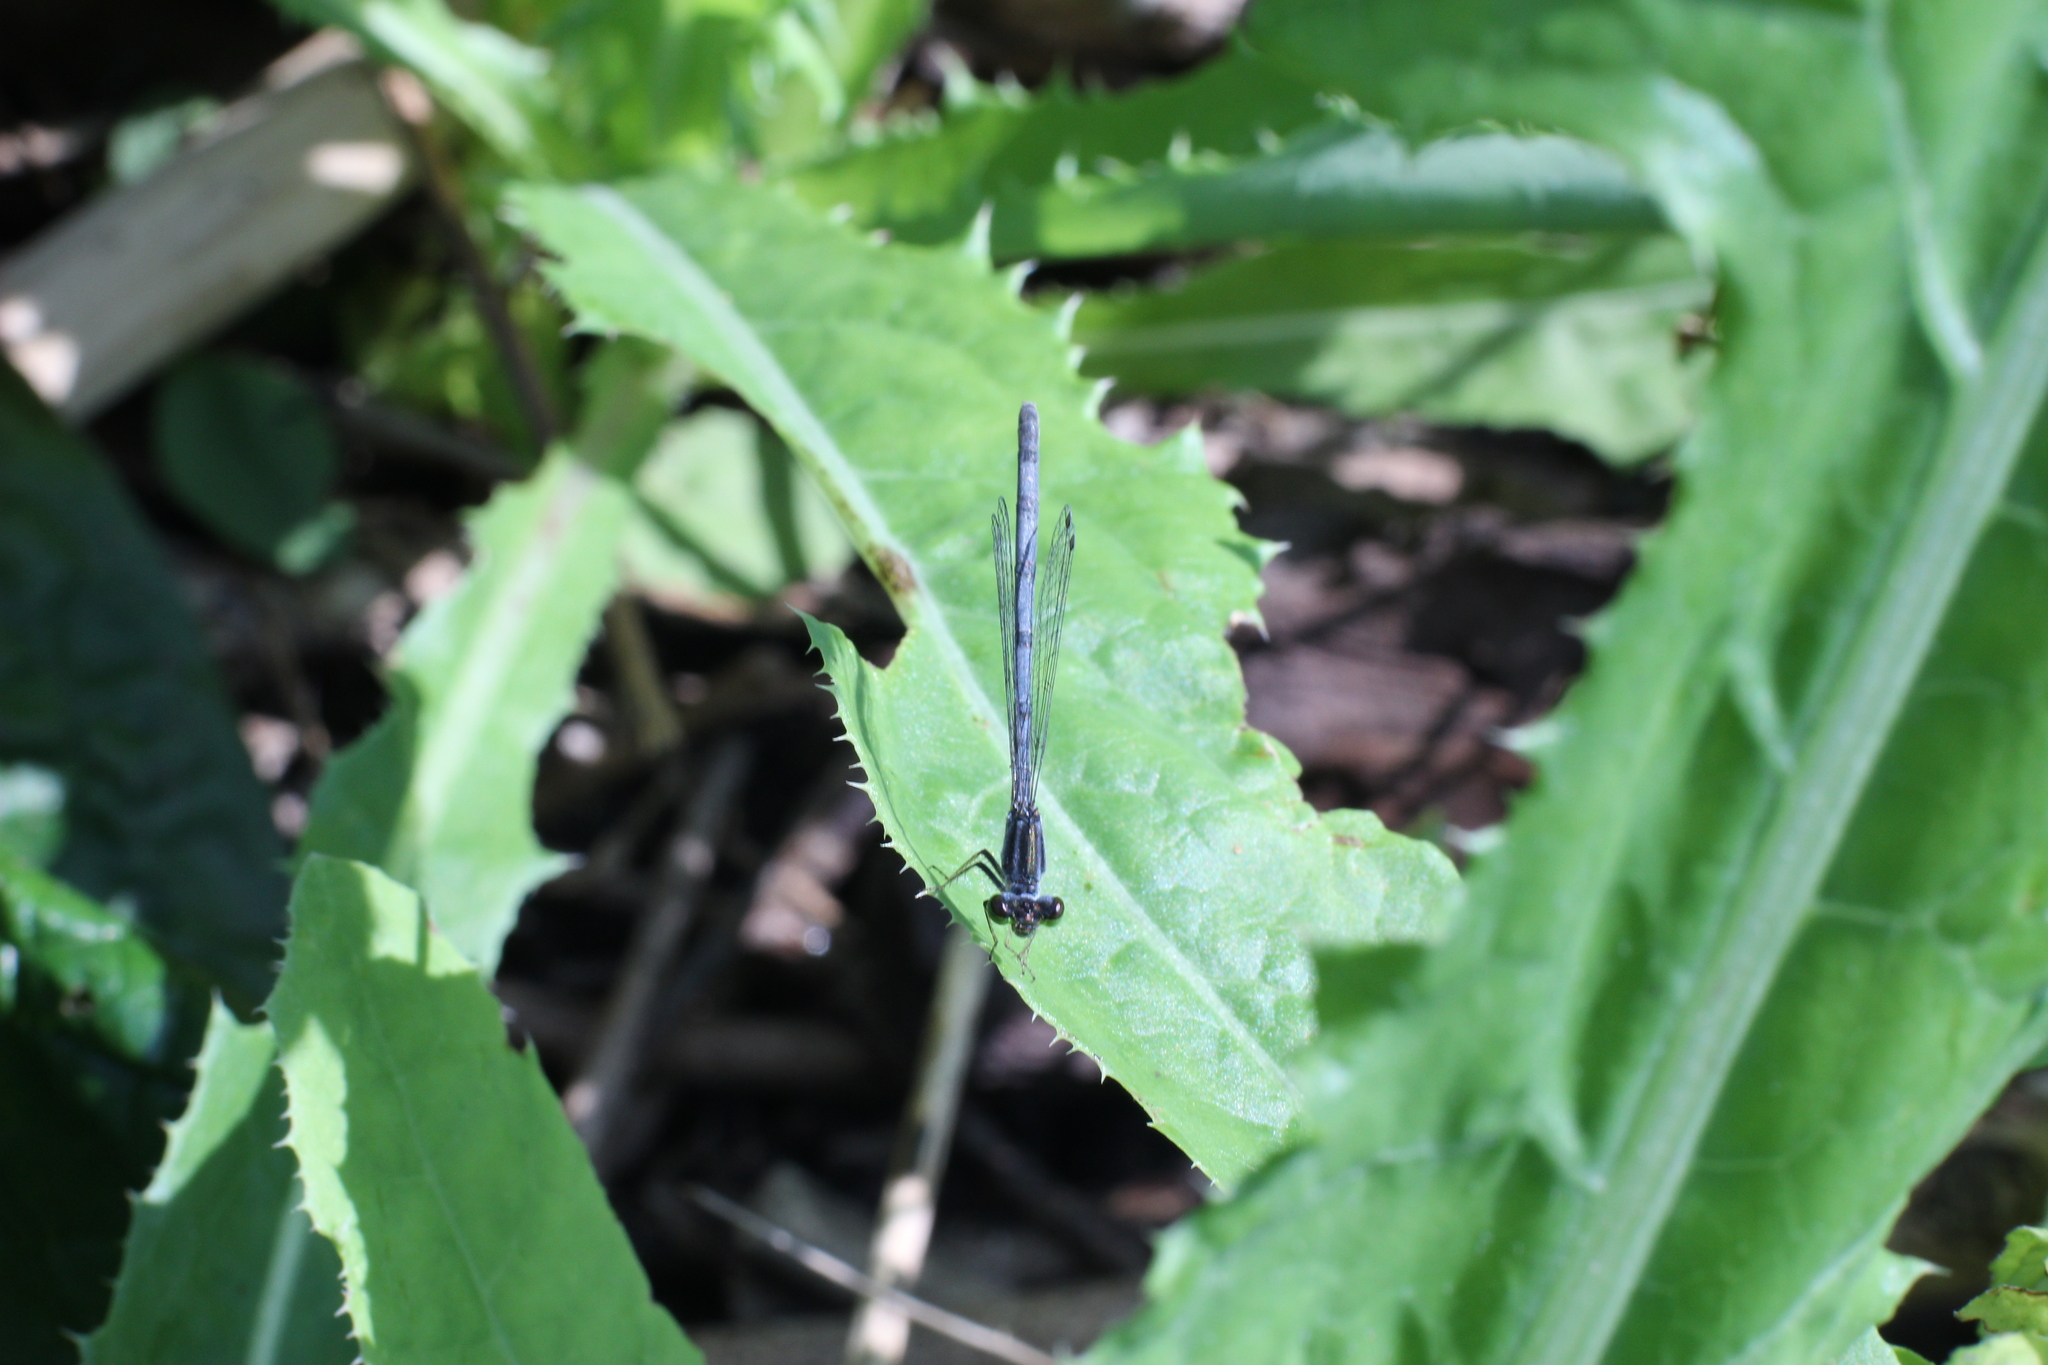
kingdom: Animalia
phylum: Arthropoda
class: Insecta
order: Odonata
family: Coenagrionidae
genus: Ischnura
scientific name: Ischnura verticalis
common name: Eastern forktail
